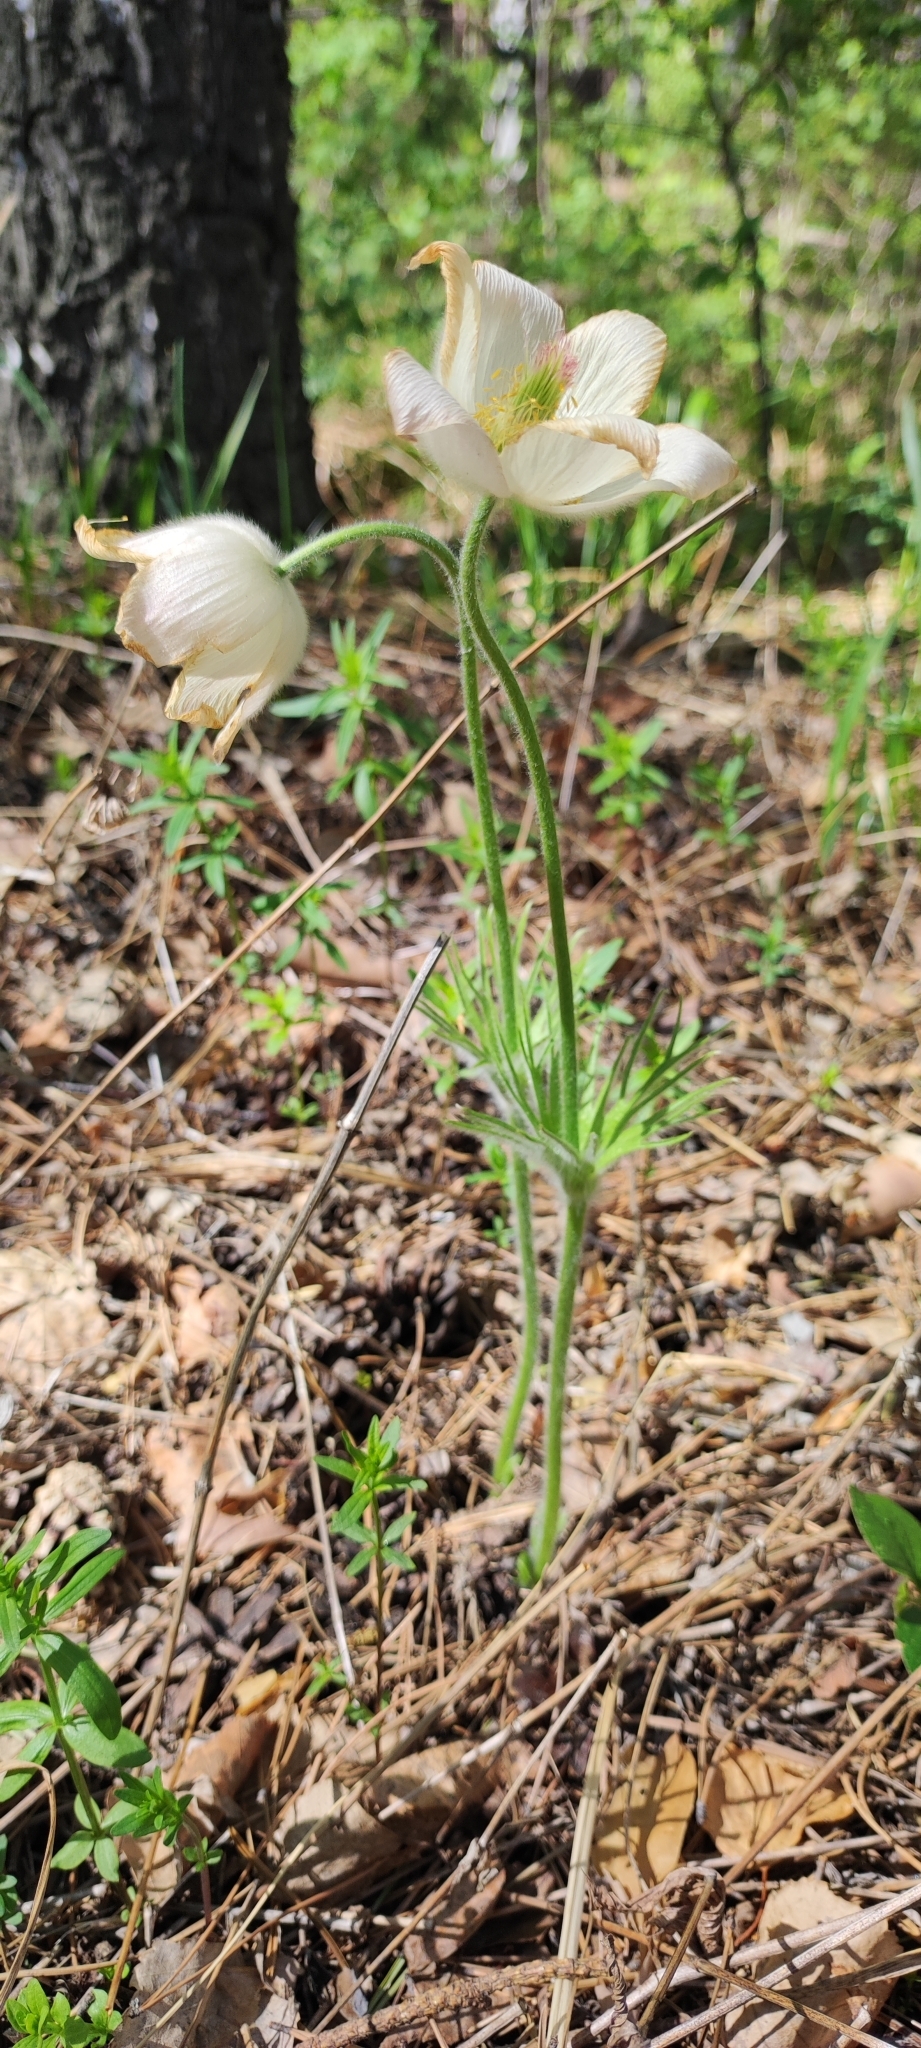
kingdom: Plantae
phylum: Tracheophyta
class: Magnoliopsida
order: Ranunculales
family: Ranunculaceae
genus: Pulsatilla
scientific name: Pulsatilla patens
